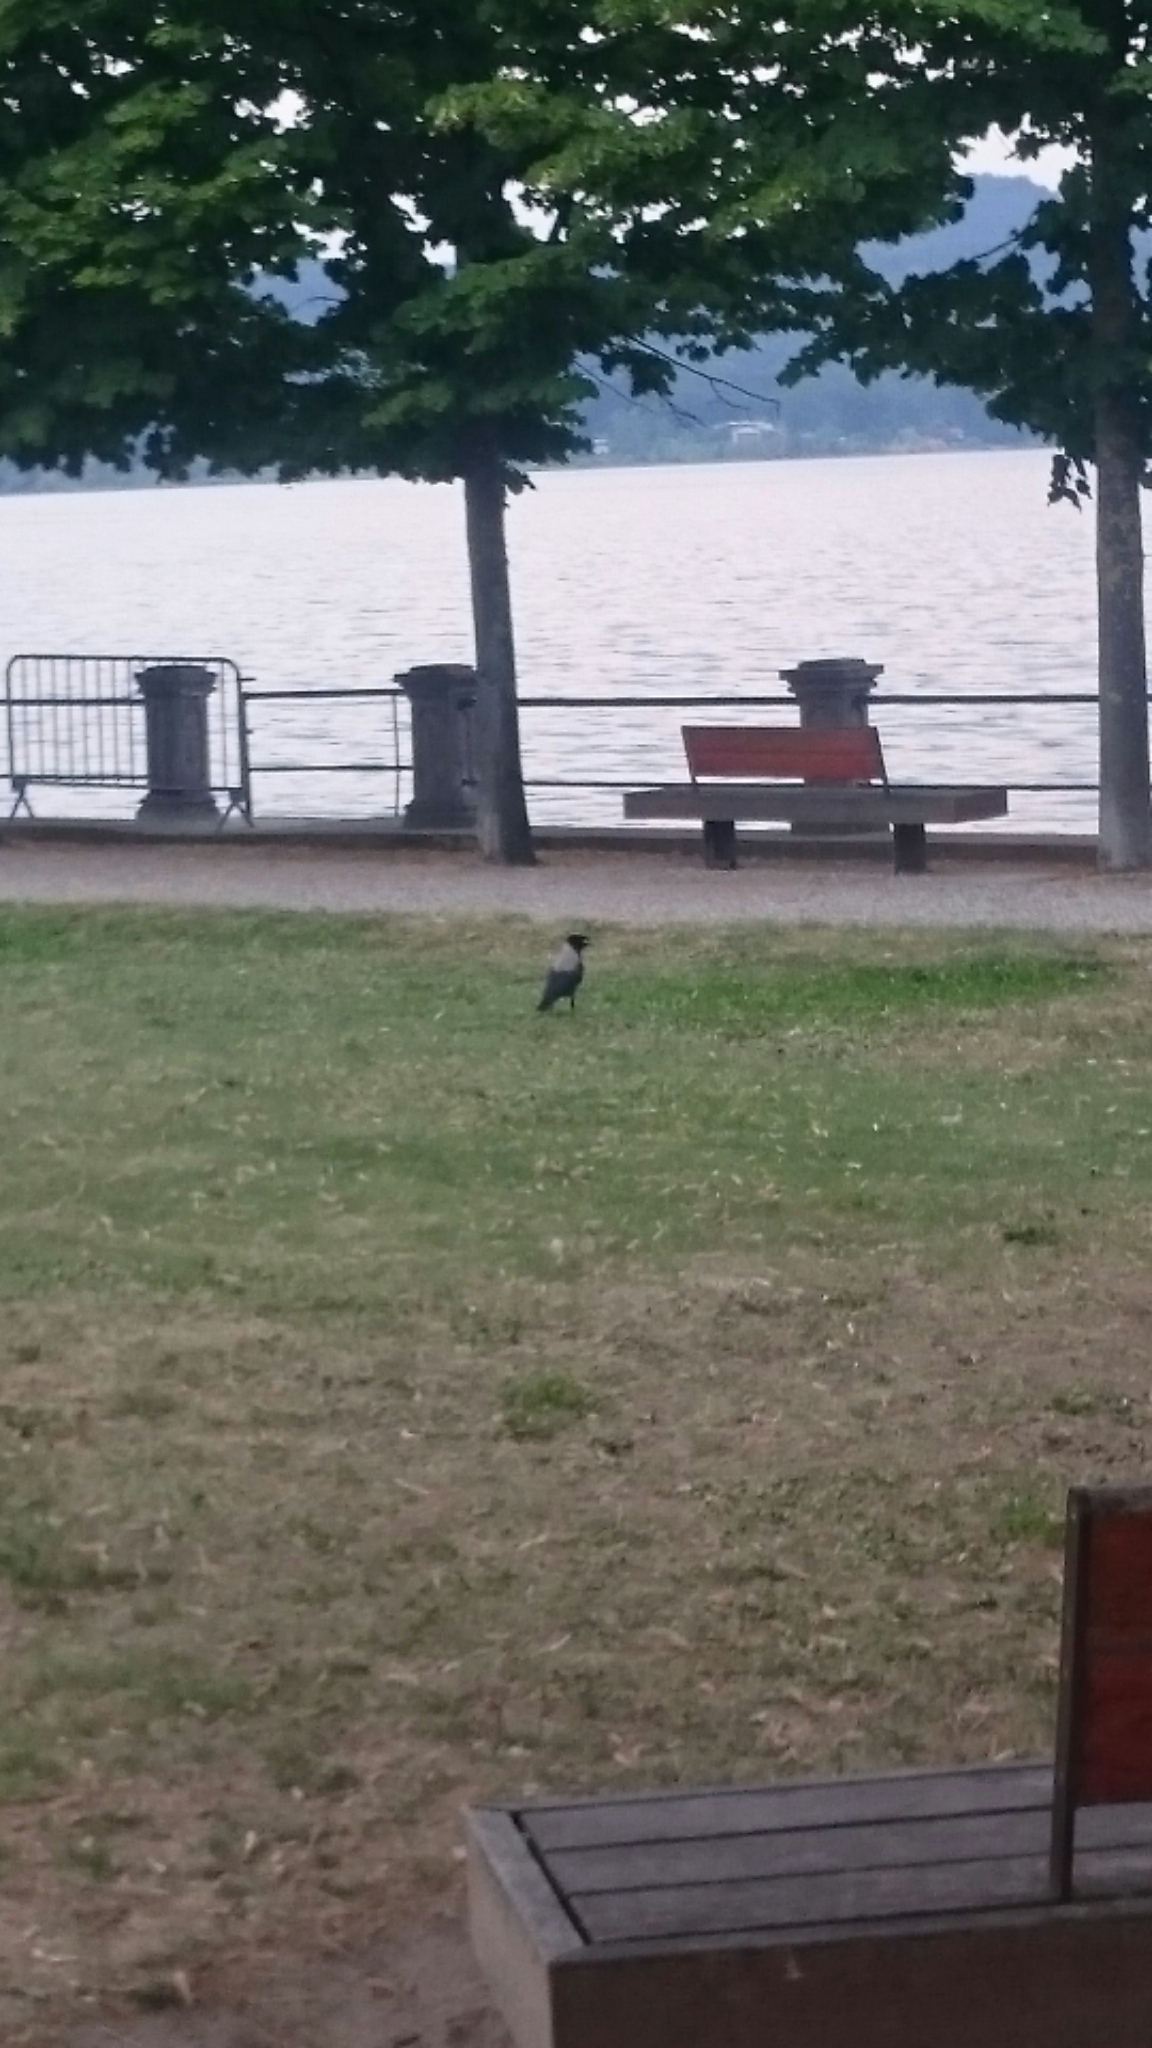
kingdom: Animalia
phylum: Chordata
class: Aves
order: Passeriformes
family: Corvidae
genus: Corvus
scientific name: Corvus cornix
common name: Hooded crow
